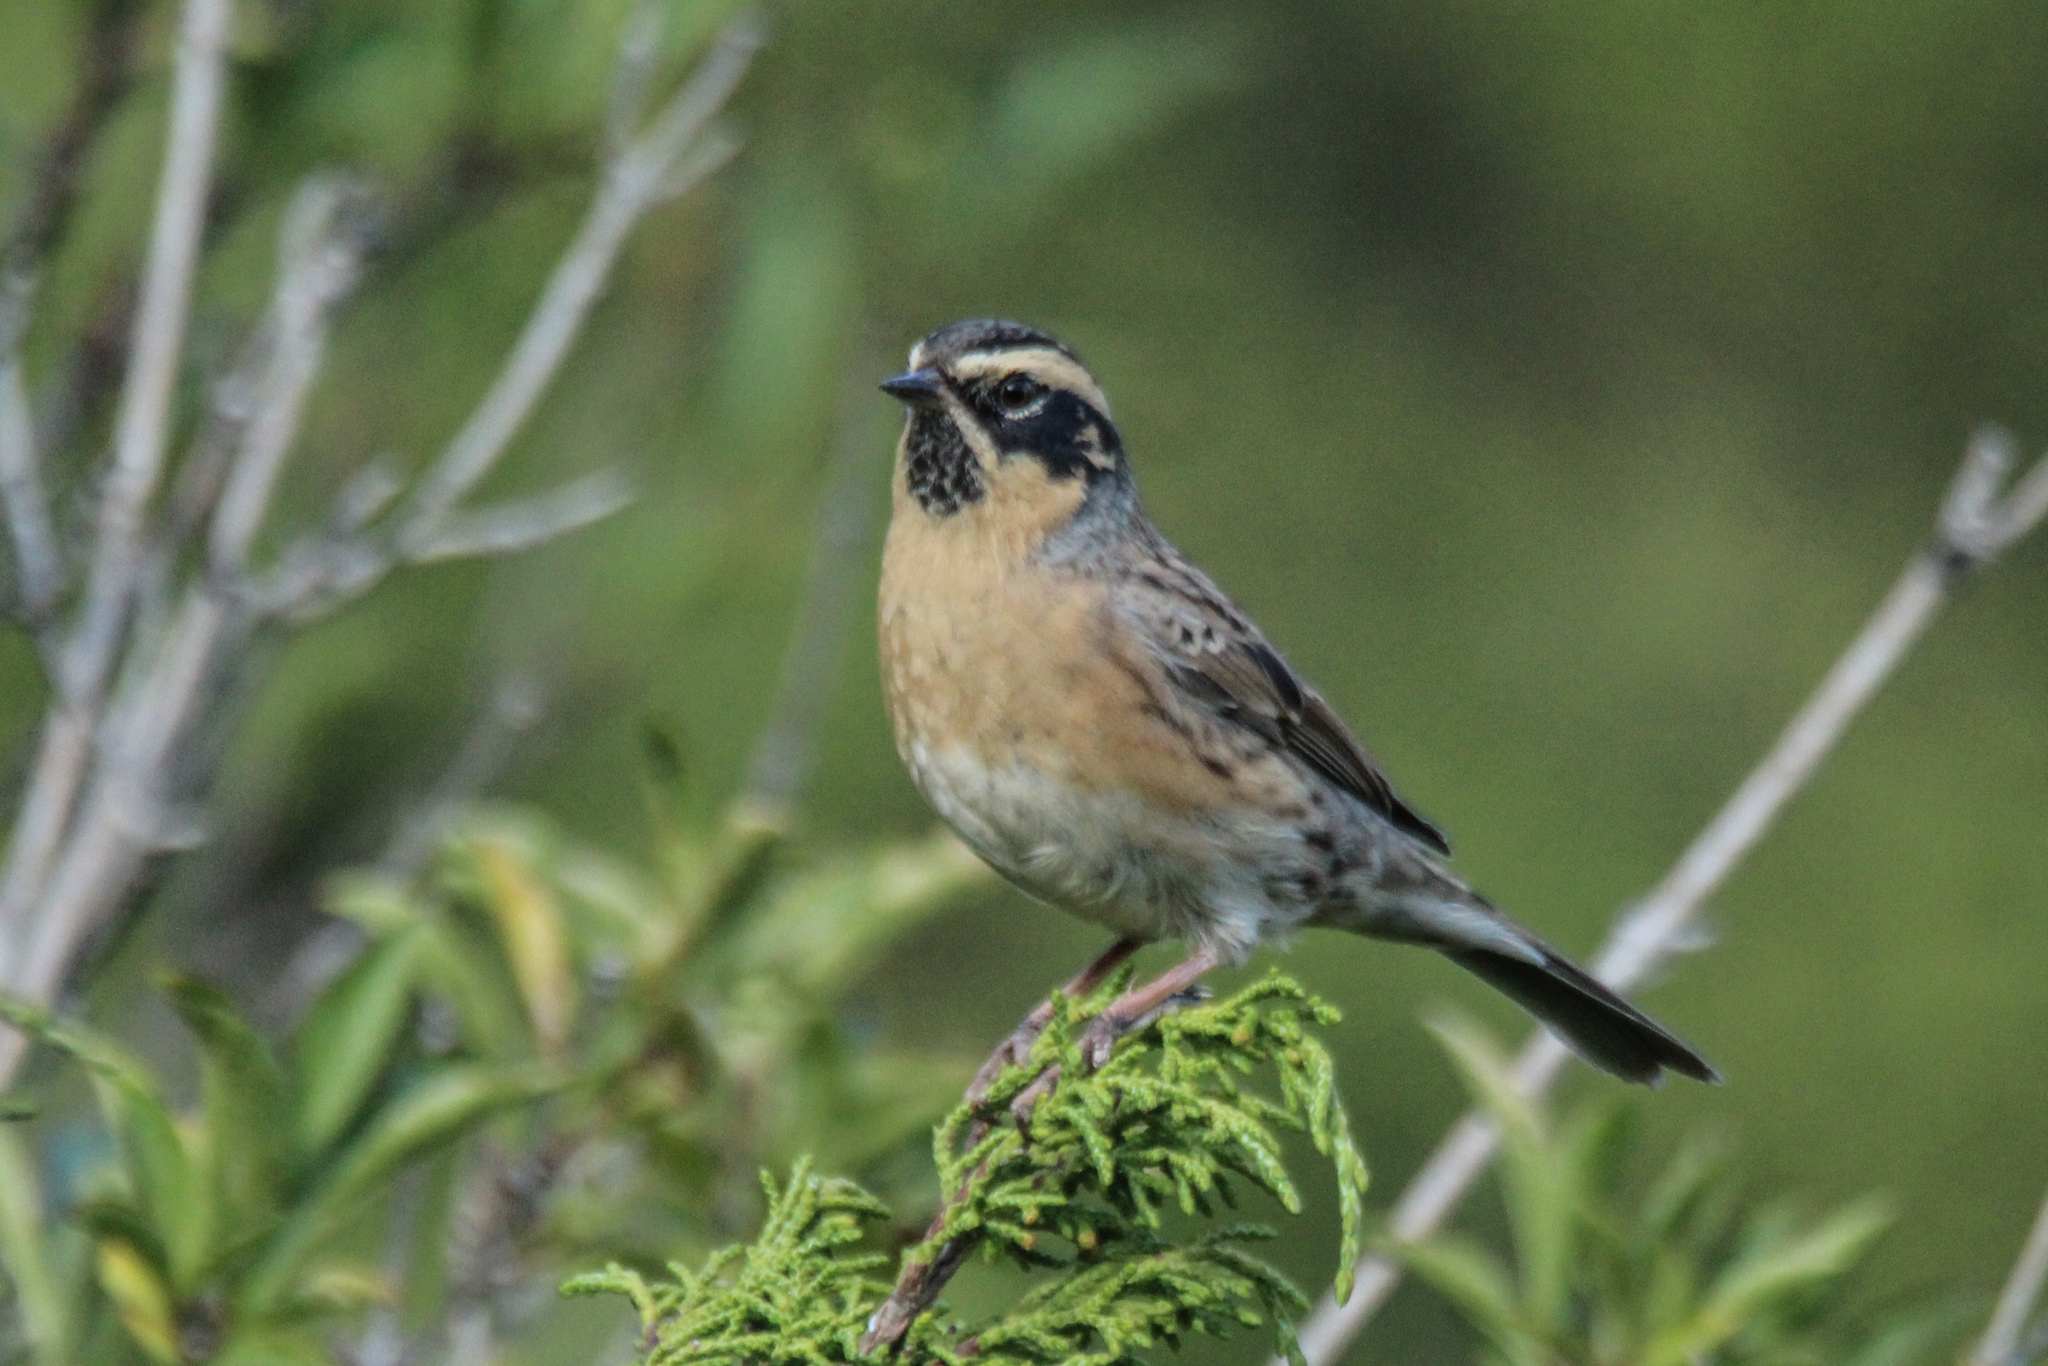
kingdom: Animalia
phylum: Chordata
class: Aves
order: Passeriformes
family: Prunellidae
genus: Prunella
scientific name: Prunella atrogularis
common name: Black-throated accentor
